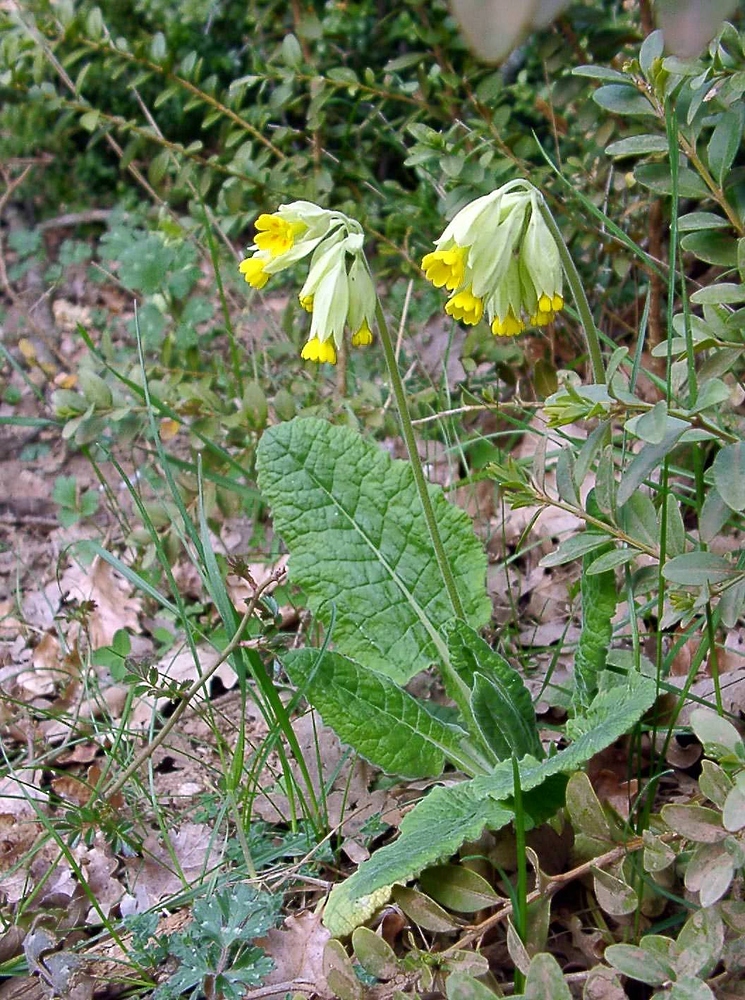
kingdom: Plantae
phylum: Tracheophyta
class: Magnoliopsida
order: Ericales
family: Primulaceae
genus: Primula
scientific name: Primula veris
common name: Cowslip
